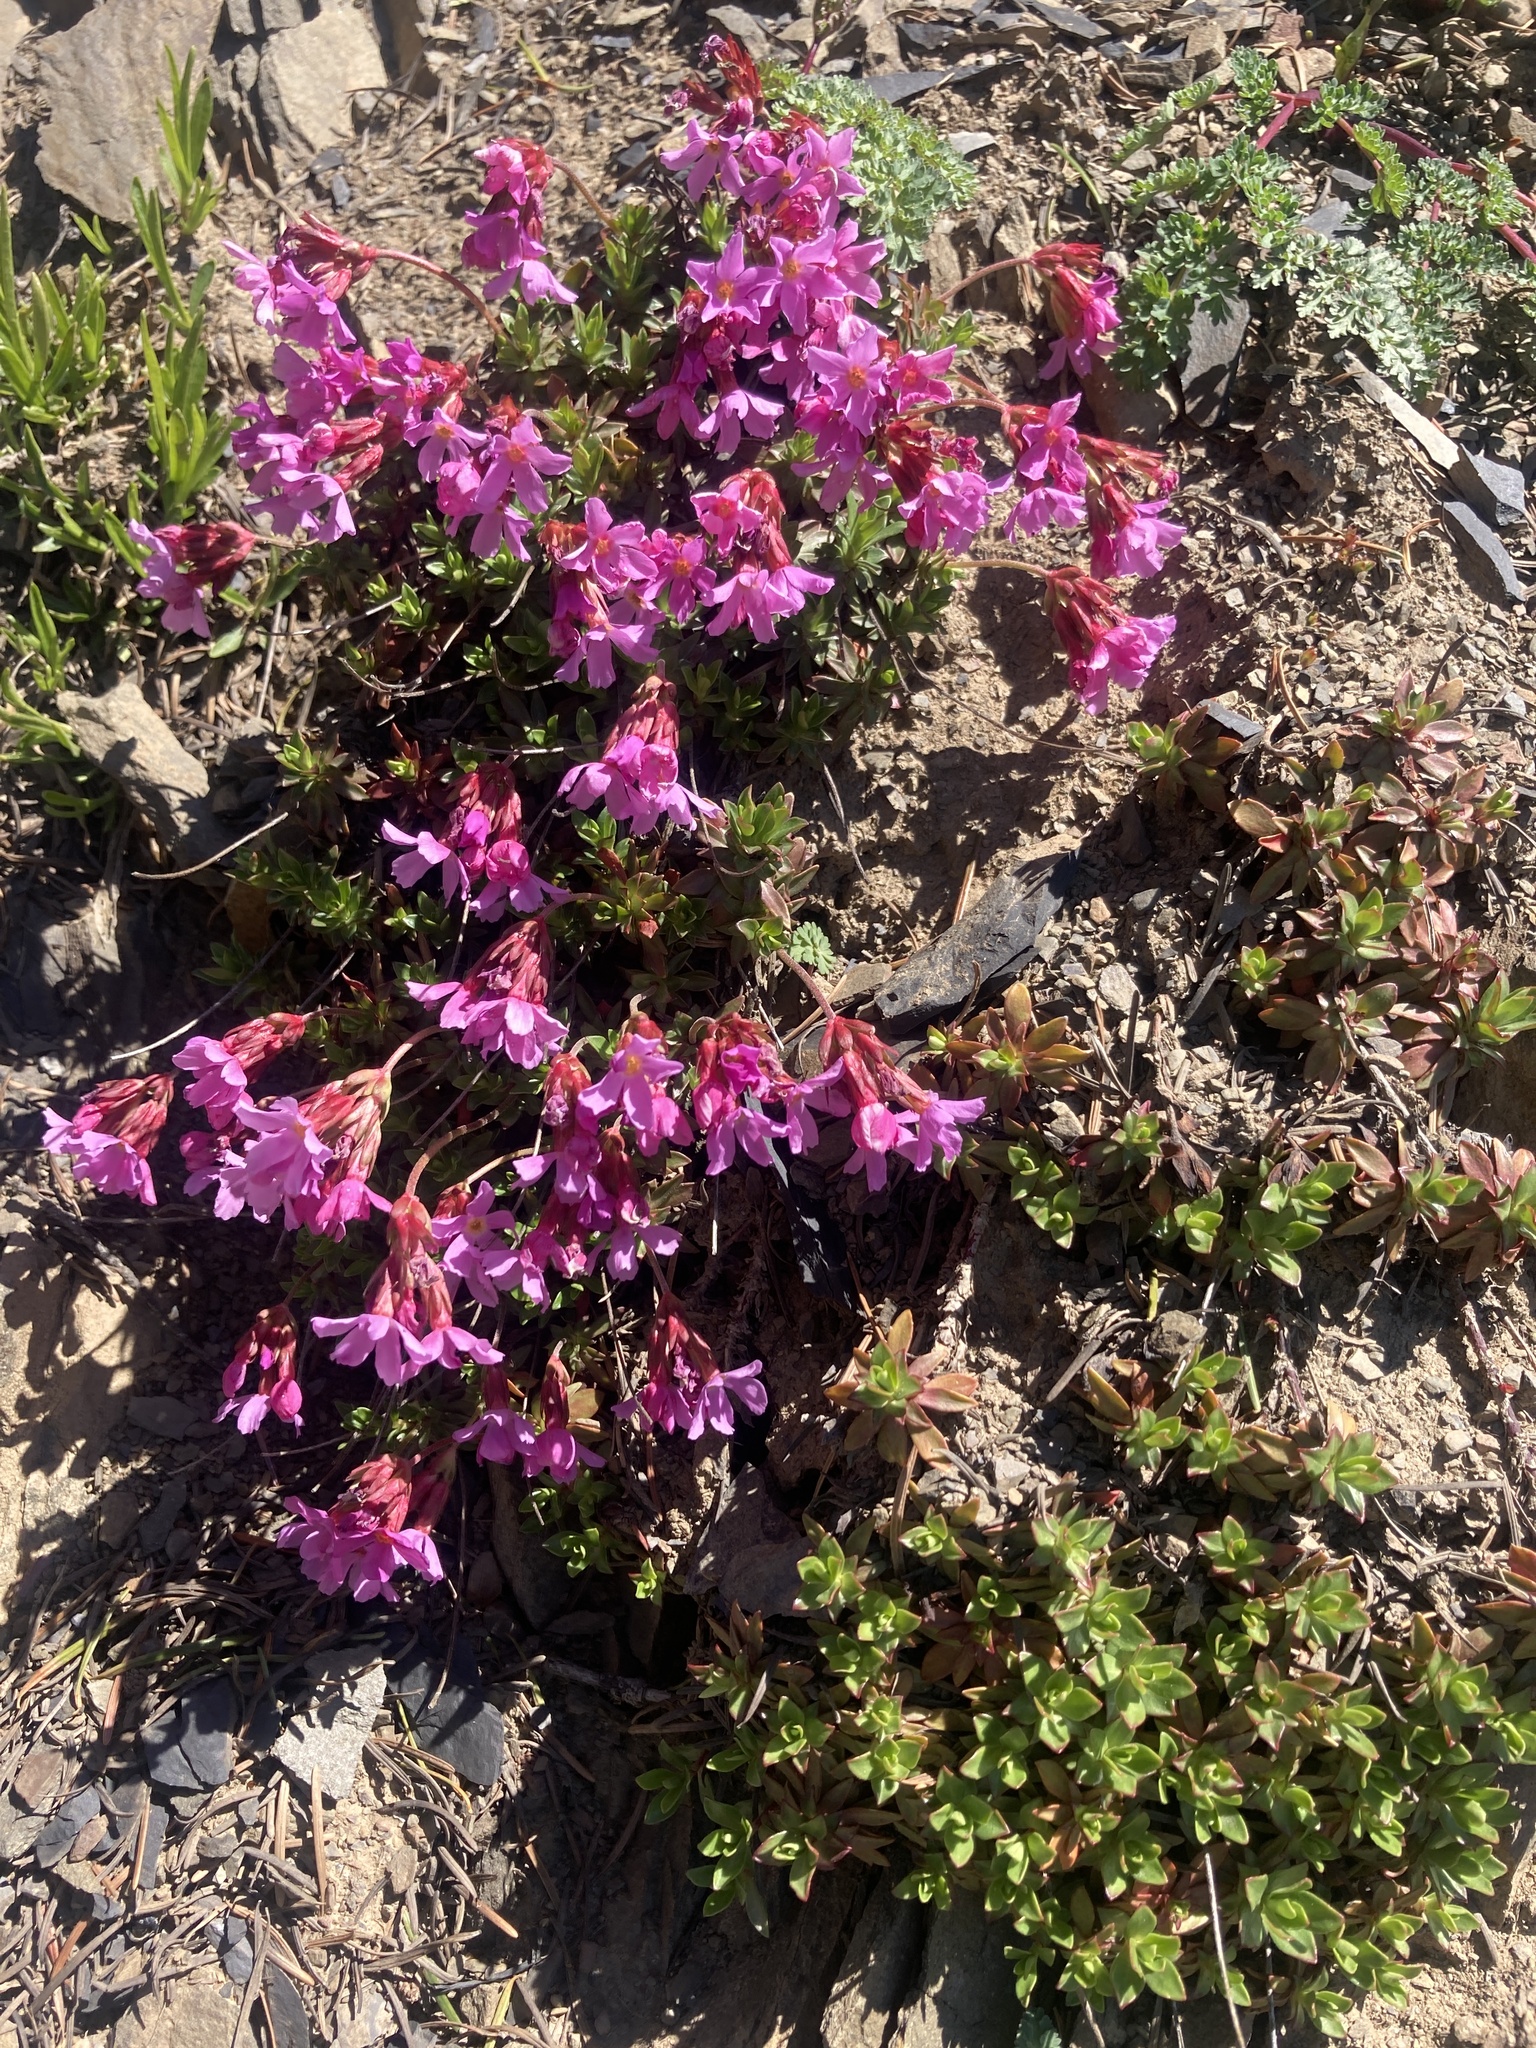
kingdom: Plantae
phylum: Tracheophyta
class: Magnoliopsida
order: Ericales
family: Primulaceae
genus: Androsace
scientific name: Androsace laevigata
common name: Cliff dwarf-primrose
